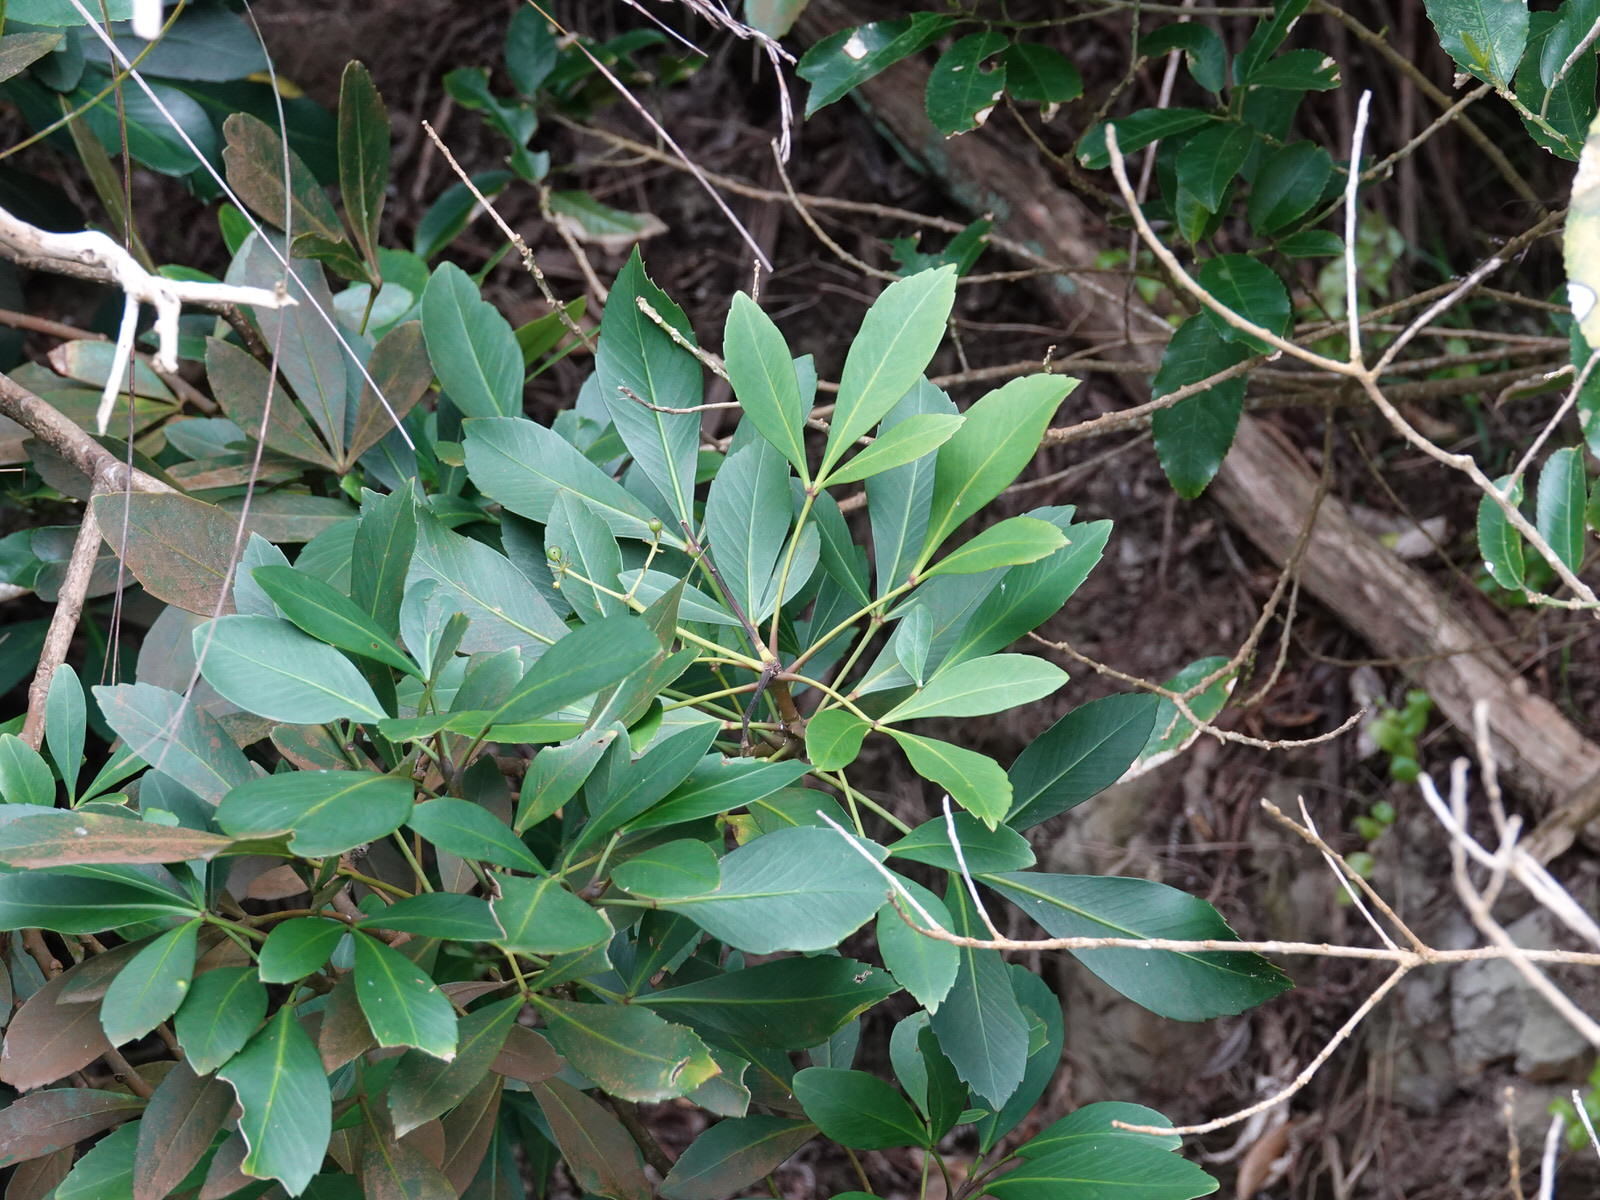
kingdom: Plantae
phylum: Tracheophyta
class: Magnoliopsida
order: Apiales
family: Araliaceae
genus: Pseudopanax
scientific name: Pseudopanax lessonii
